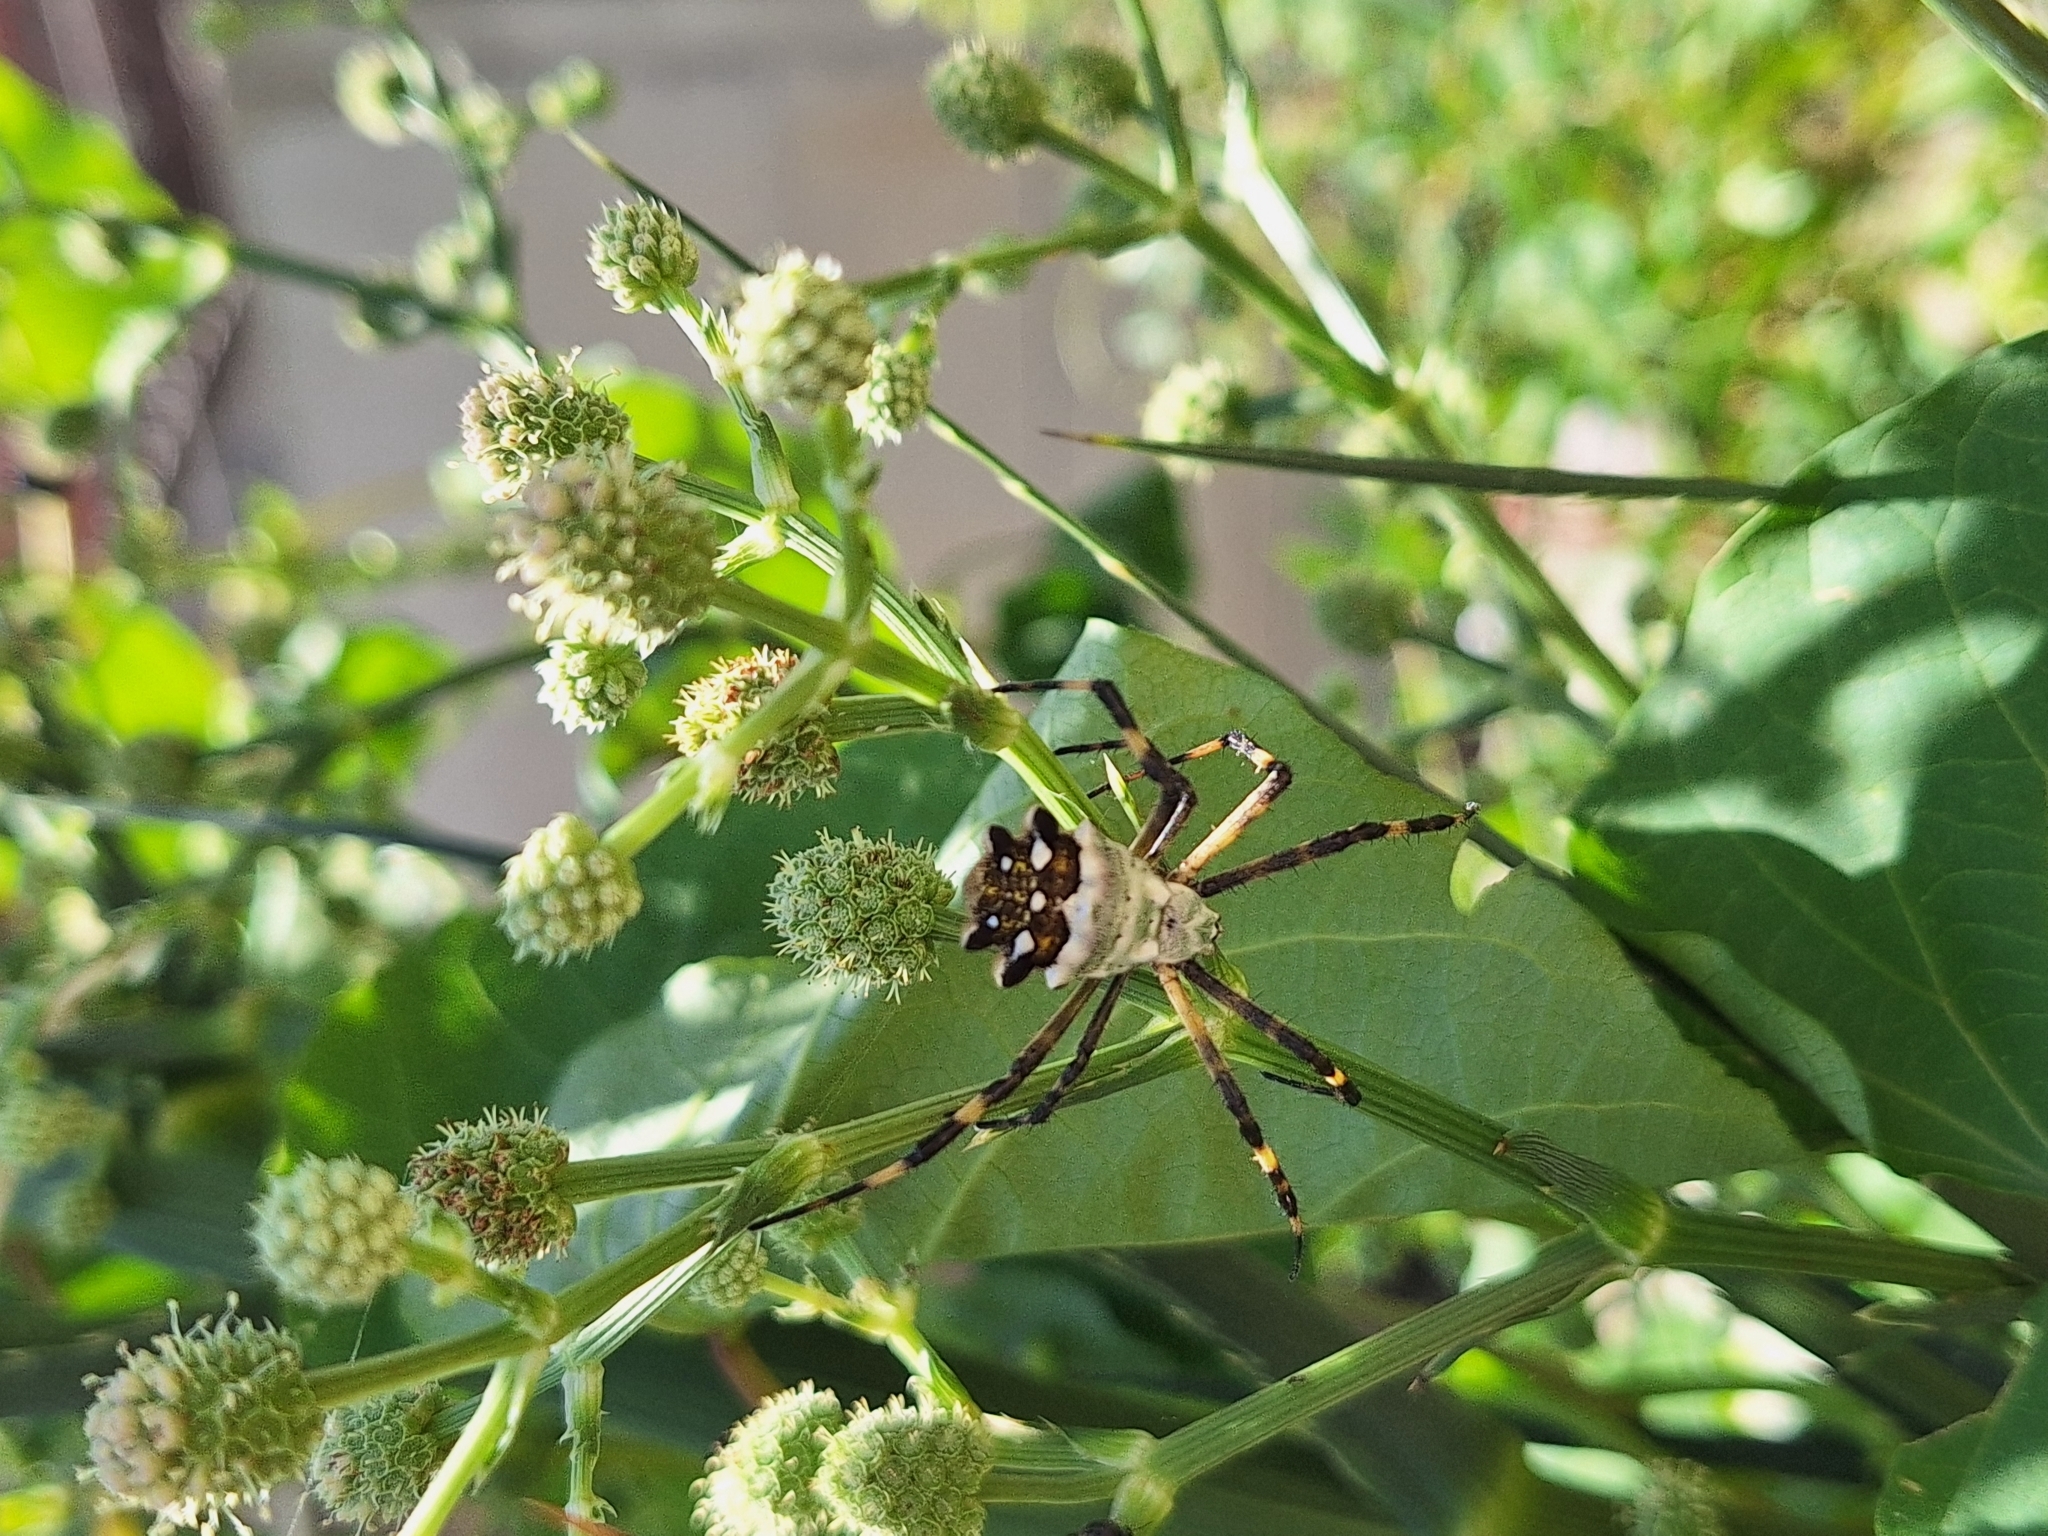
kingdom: Animalia
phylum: Arthropoda
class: Arachnida
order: Araneae
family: Araneidae
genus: Argiope
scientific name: Argiope argentata
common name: Orb weavers
